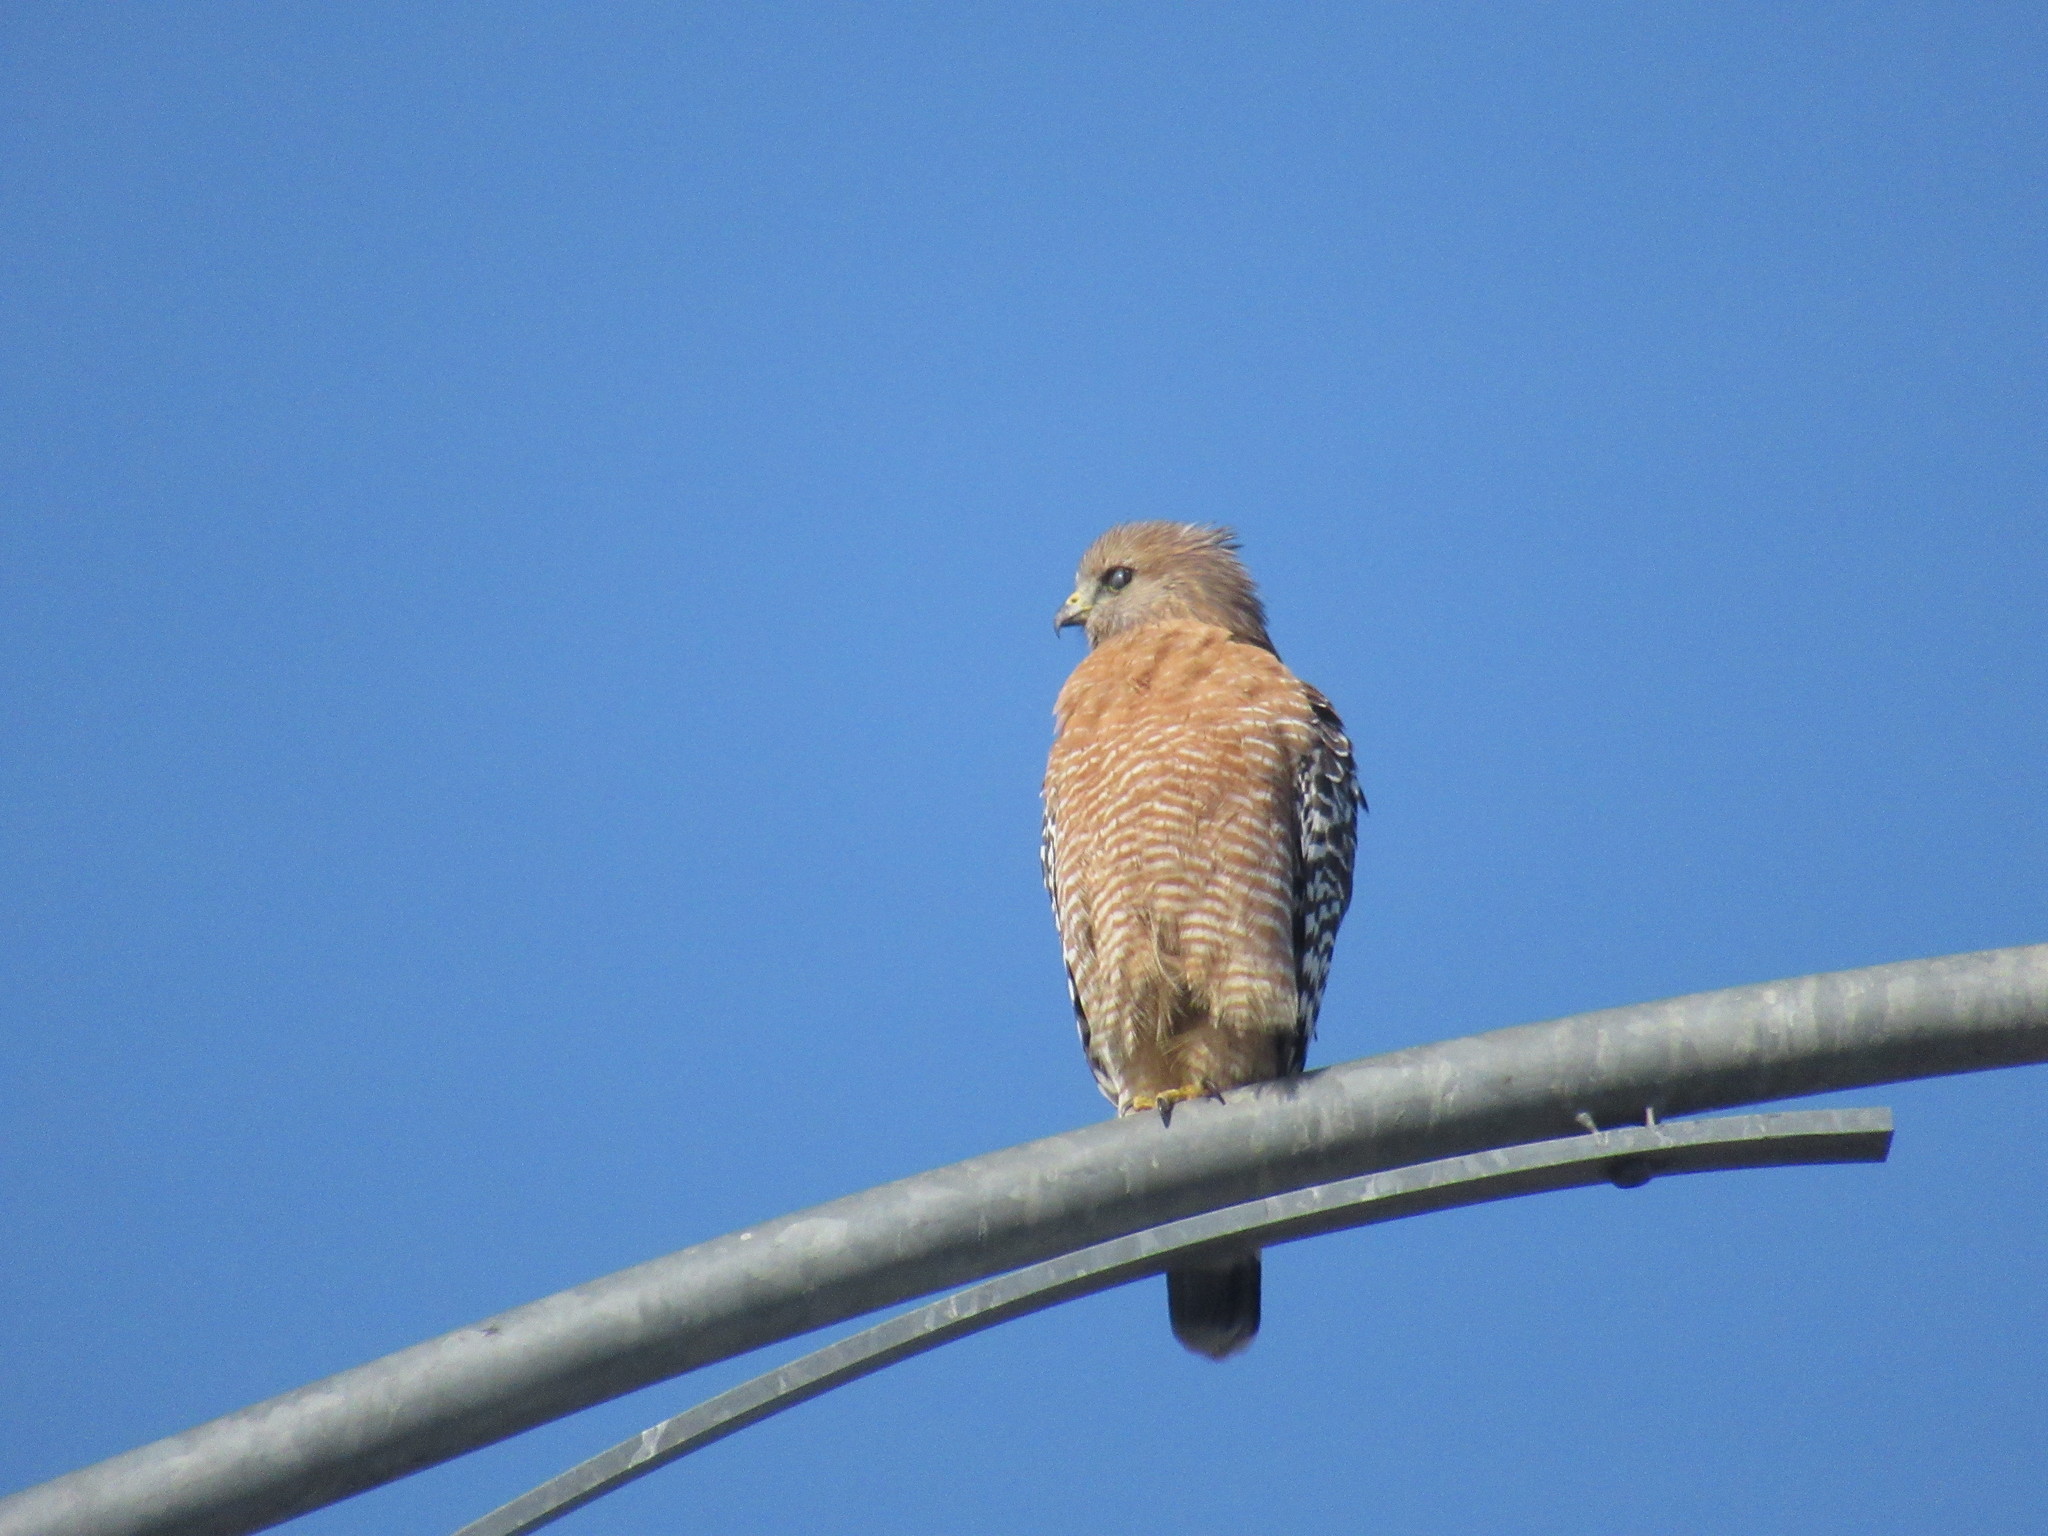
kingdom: Animalia
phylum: Chordata
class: Aves
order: Accipitriformes
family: Accipitridae
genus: Buteo
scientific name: Buteo lineatus
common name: Red-shouldered hawk
